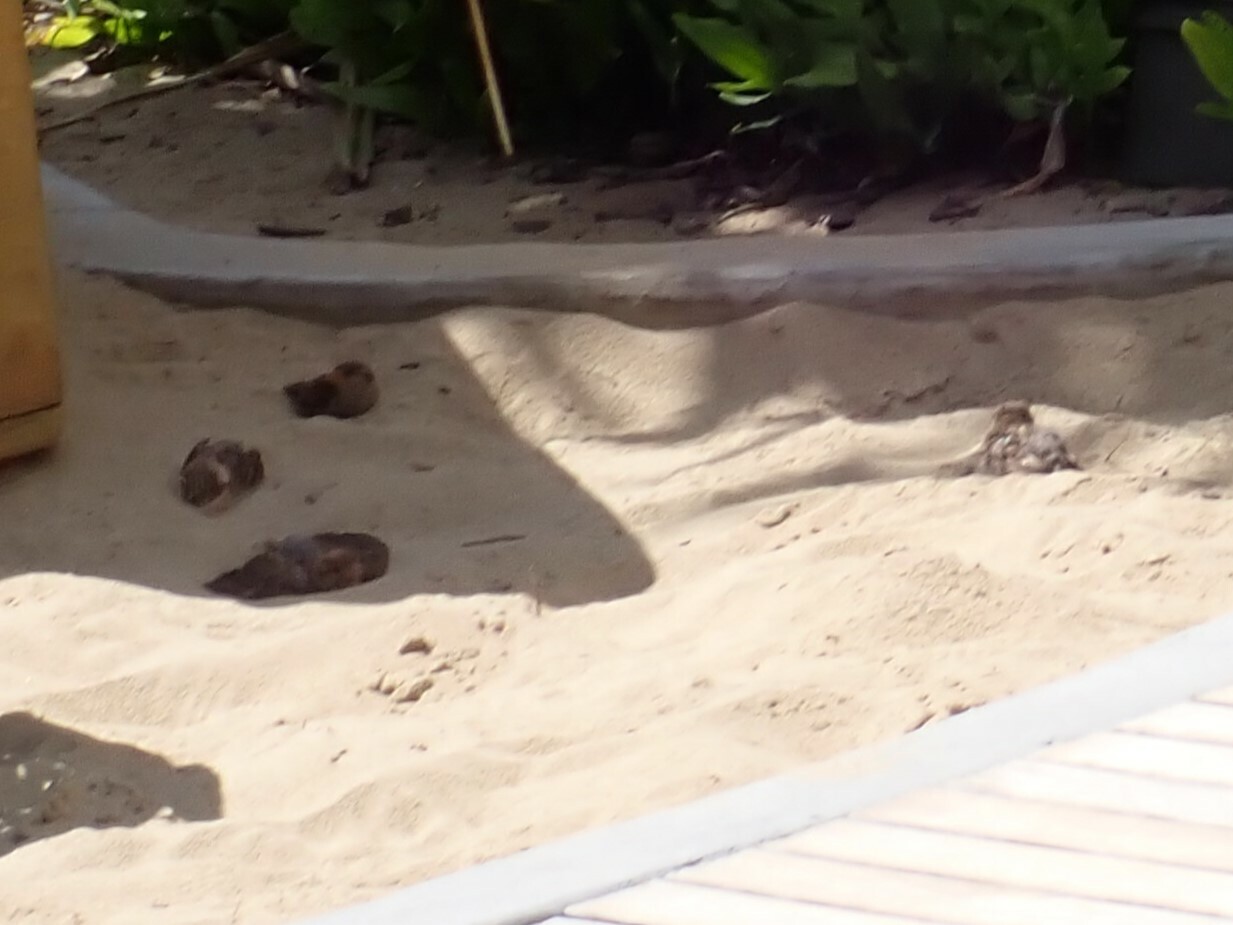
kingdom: Animalia
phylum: Chordata
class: Aves
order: Passeriformes
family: Passeridae
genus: Passer
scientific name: Passer domesticus
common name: House sparrow
